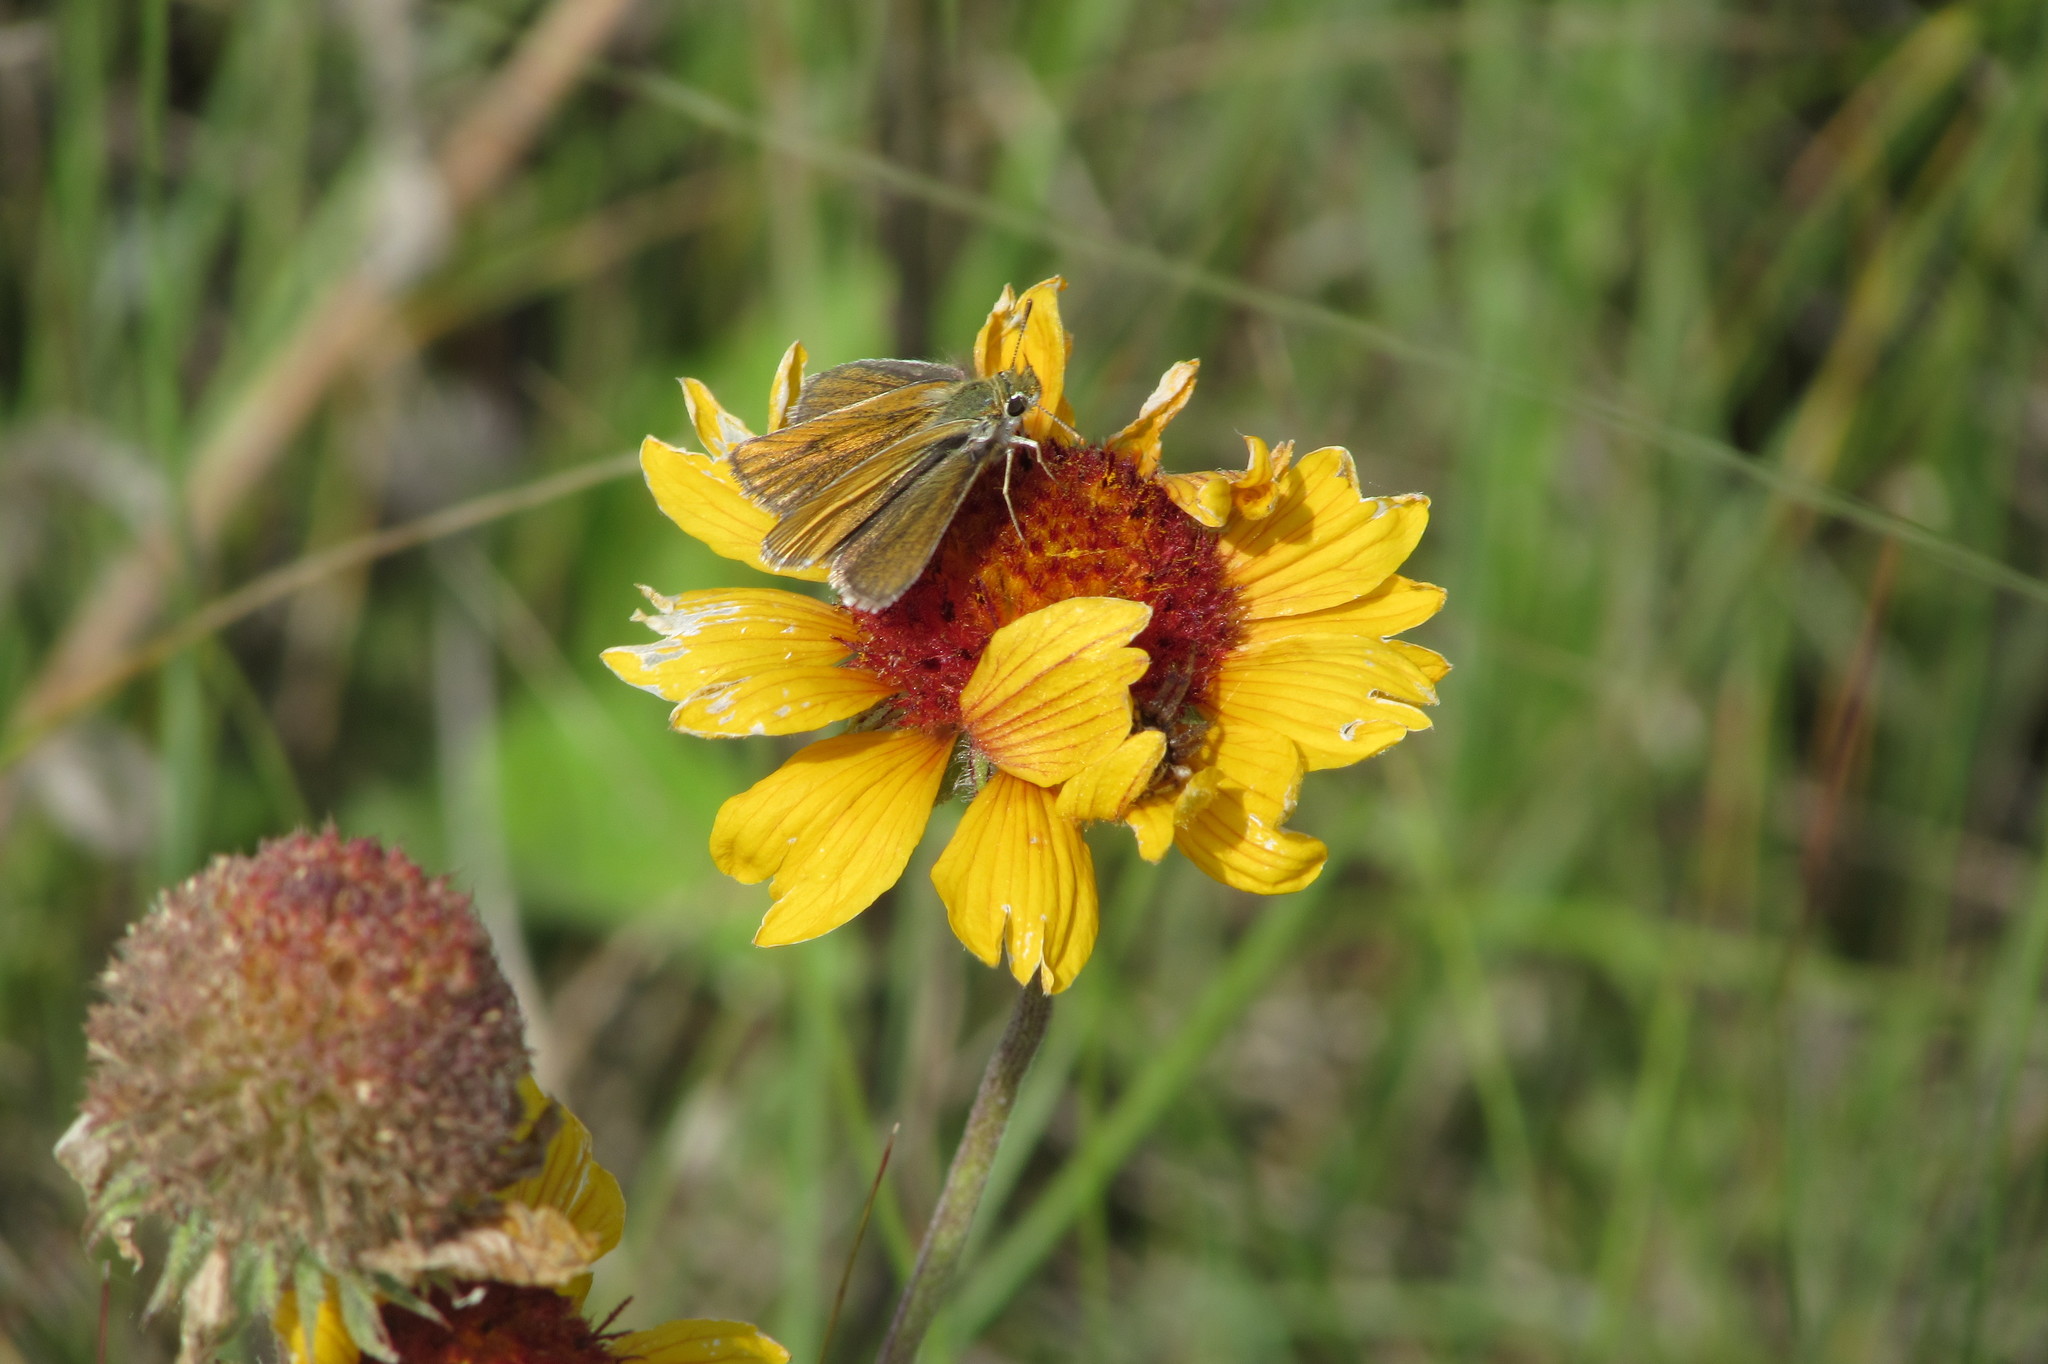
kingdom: Animalia
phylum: Arthropoda
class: Insecta
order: Lepidoptera
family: Hesperiidae
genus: Oarisma
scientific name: Oarisma garita
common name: Garita skipperling
